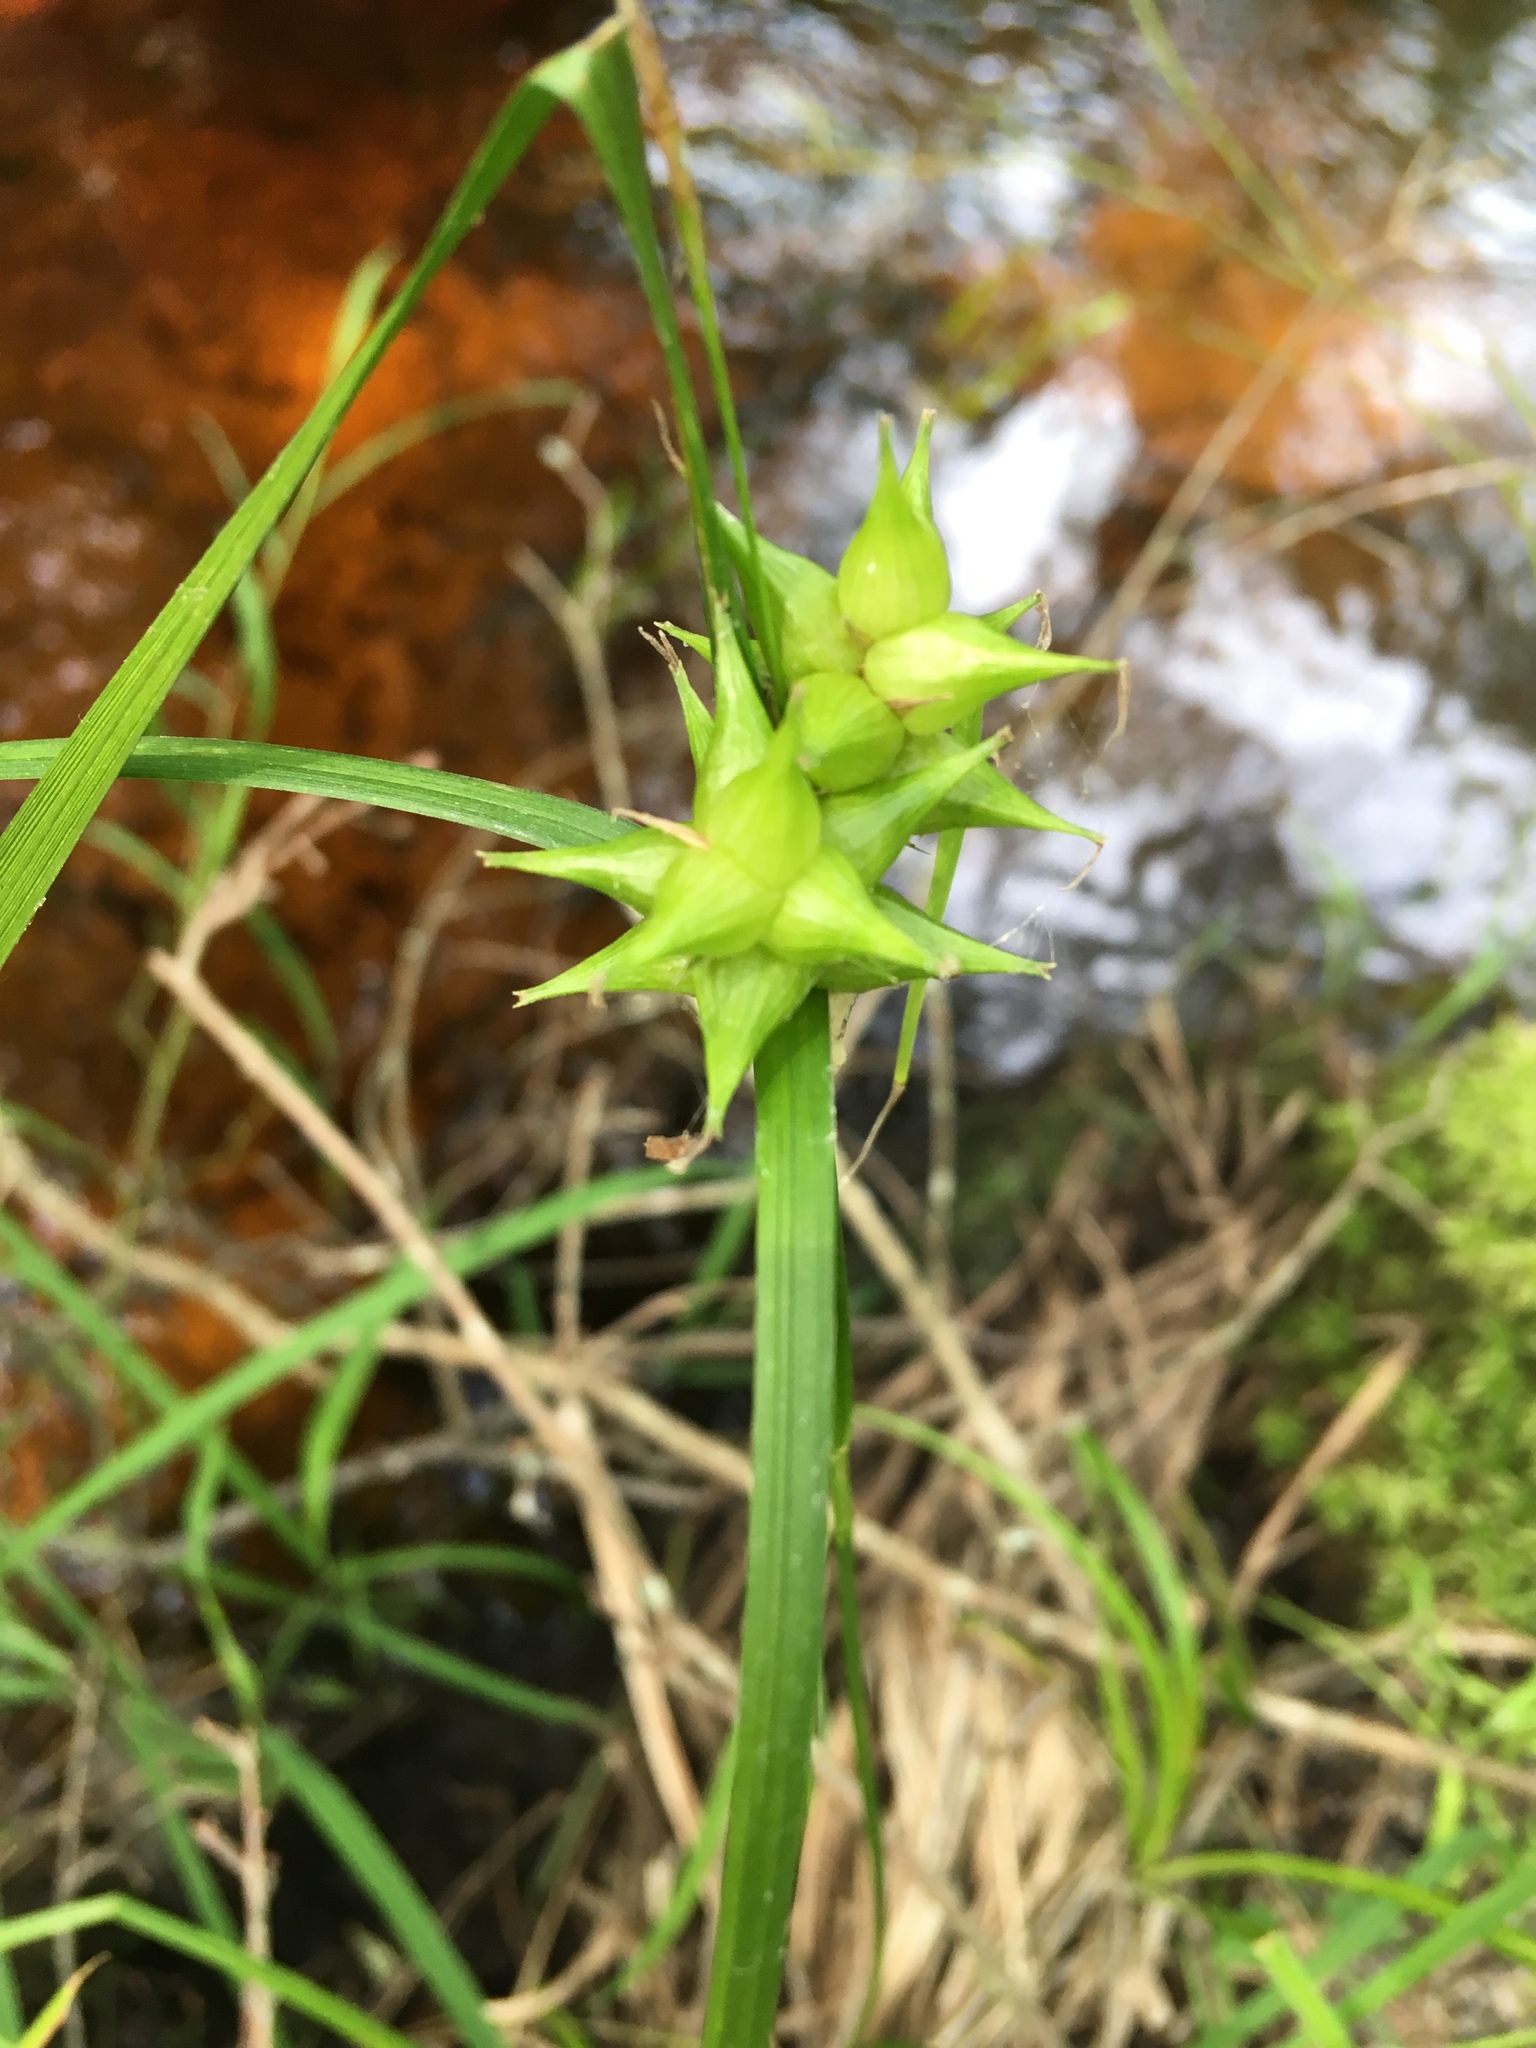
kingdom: Plantae
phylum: Tracheophyta
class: Liliopsida
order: Poales
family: Cyperaceae
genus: Carex
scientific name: Carex grayi
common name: Asa gray's sedge
